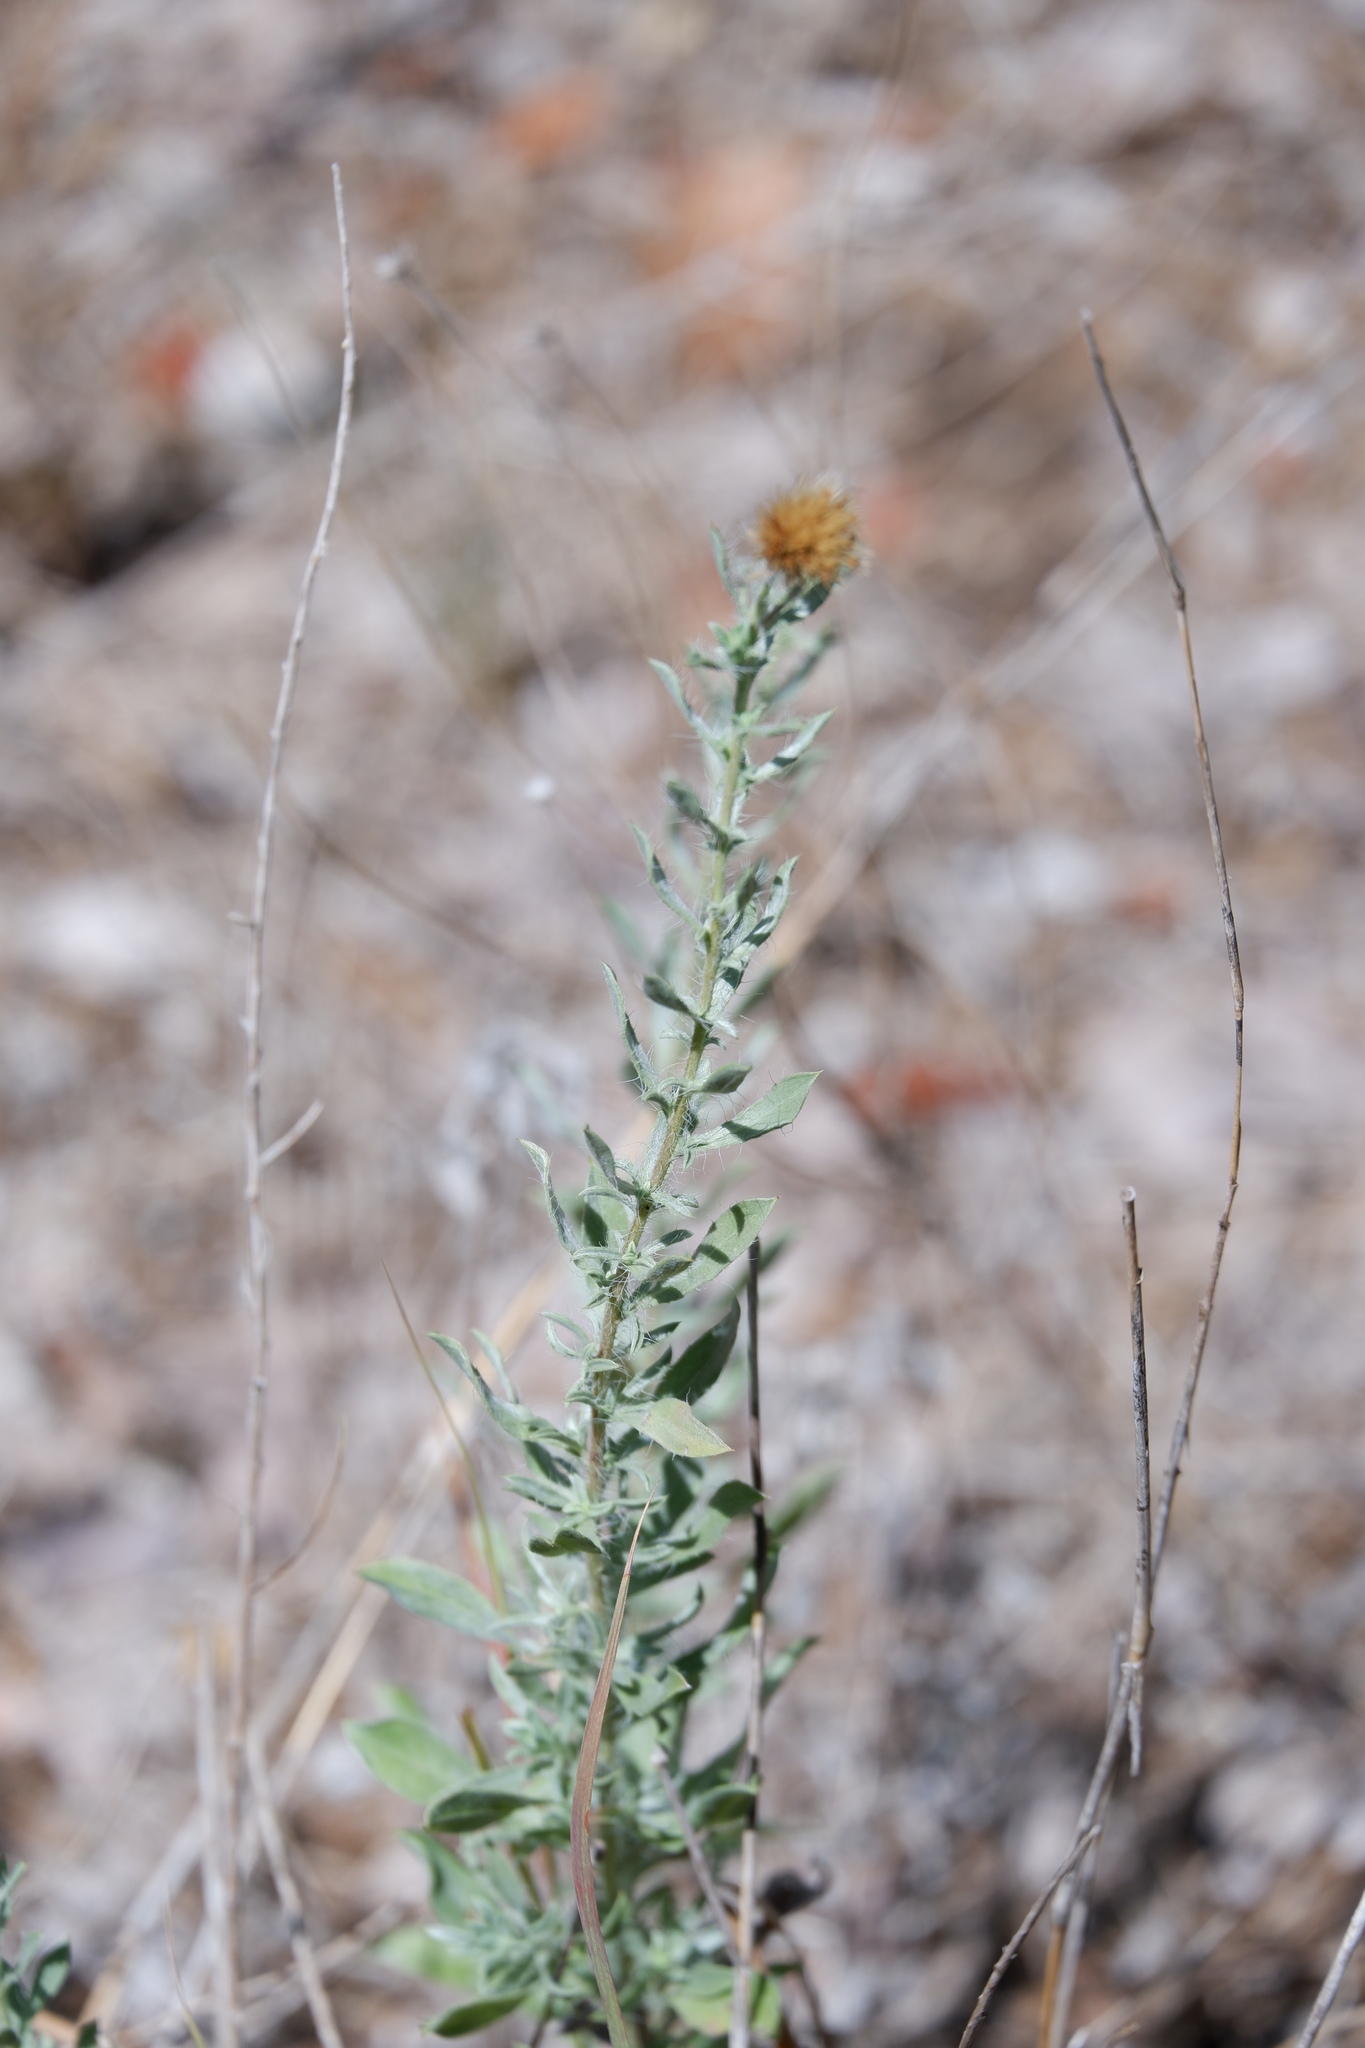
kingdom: Plantae
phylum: Tracheophyta
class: Magnoliopsida
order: Asterales
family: Asteraceae
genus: Heterotheca
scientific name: Heterotheca canescens
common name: Hoary golden-aster
